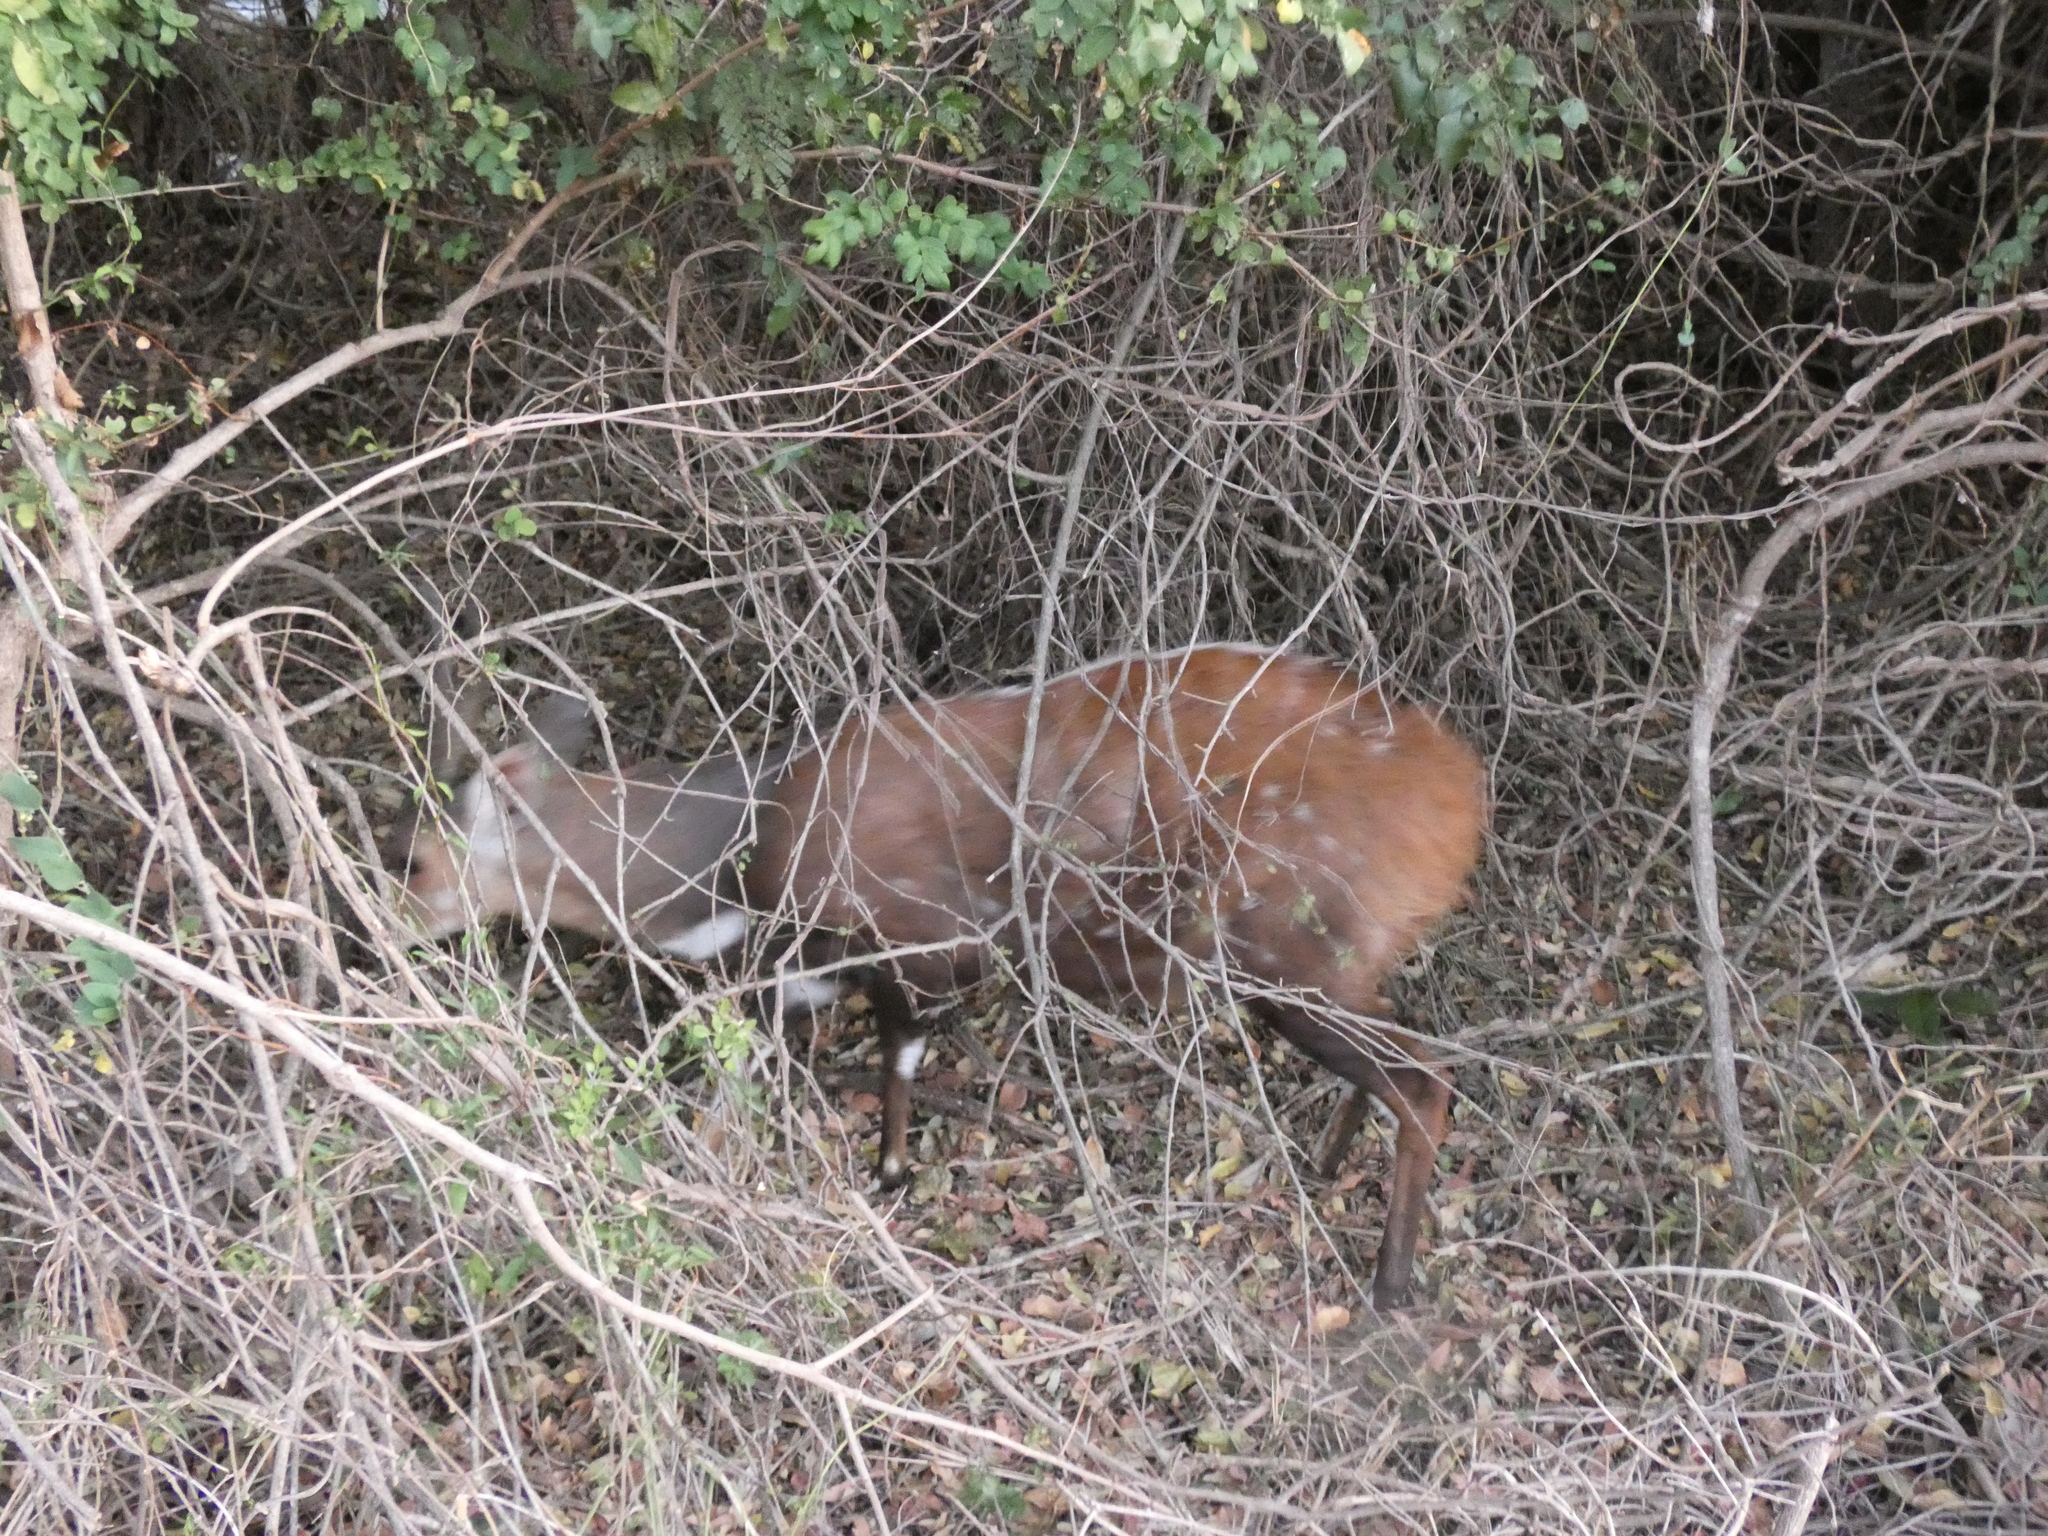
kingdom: Animalia
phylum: Chordata
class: Mammalia
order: Artiodactyla
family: Bovidae
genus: Tragelaphus
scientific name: Tragelaphus scriptus
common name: Bushbuck
